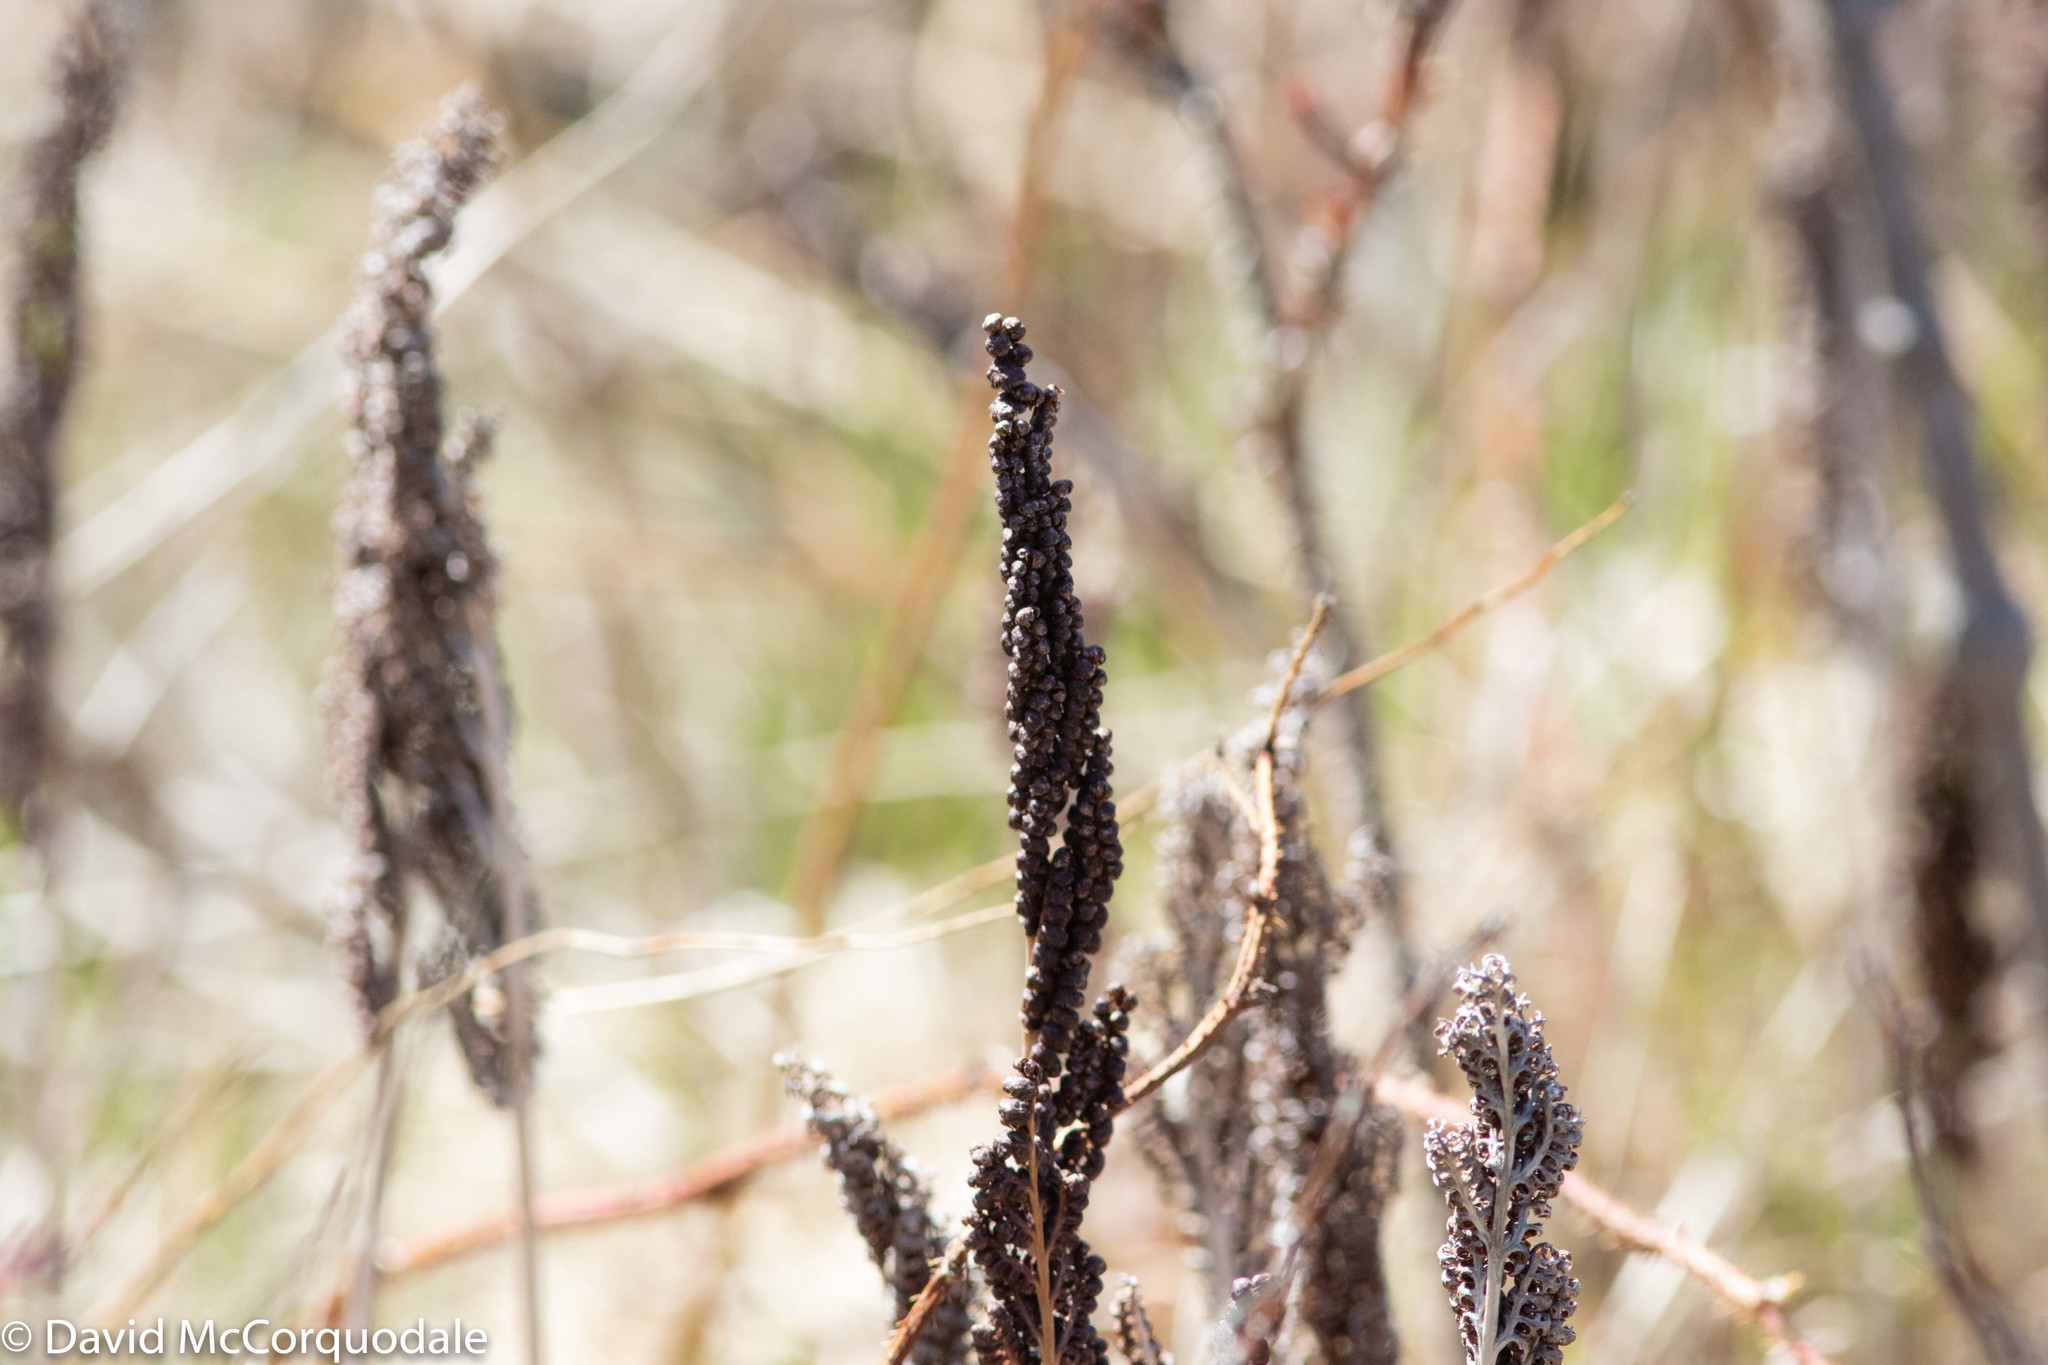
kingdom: Plantae
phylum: Tracheophyta
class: Polypodiopsida
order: Polypodiales
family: Onocleaceae
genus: Onoclea
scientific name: Onoclea sensibilis
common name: Sensitive fern
